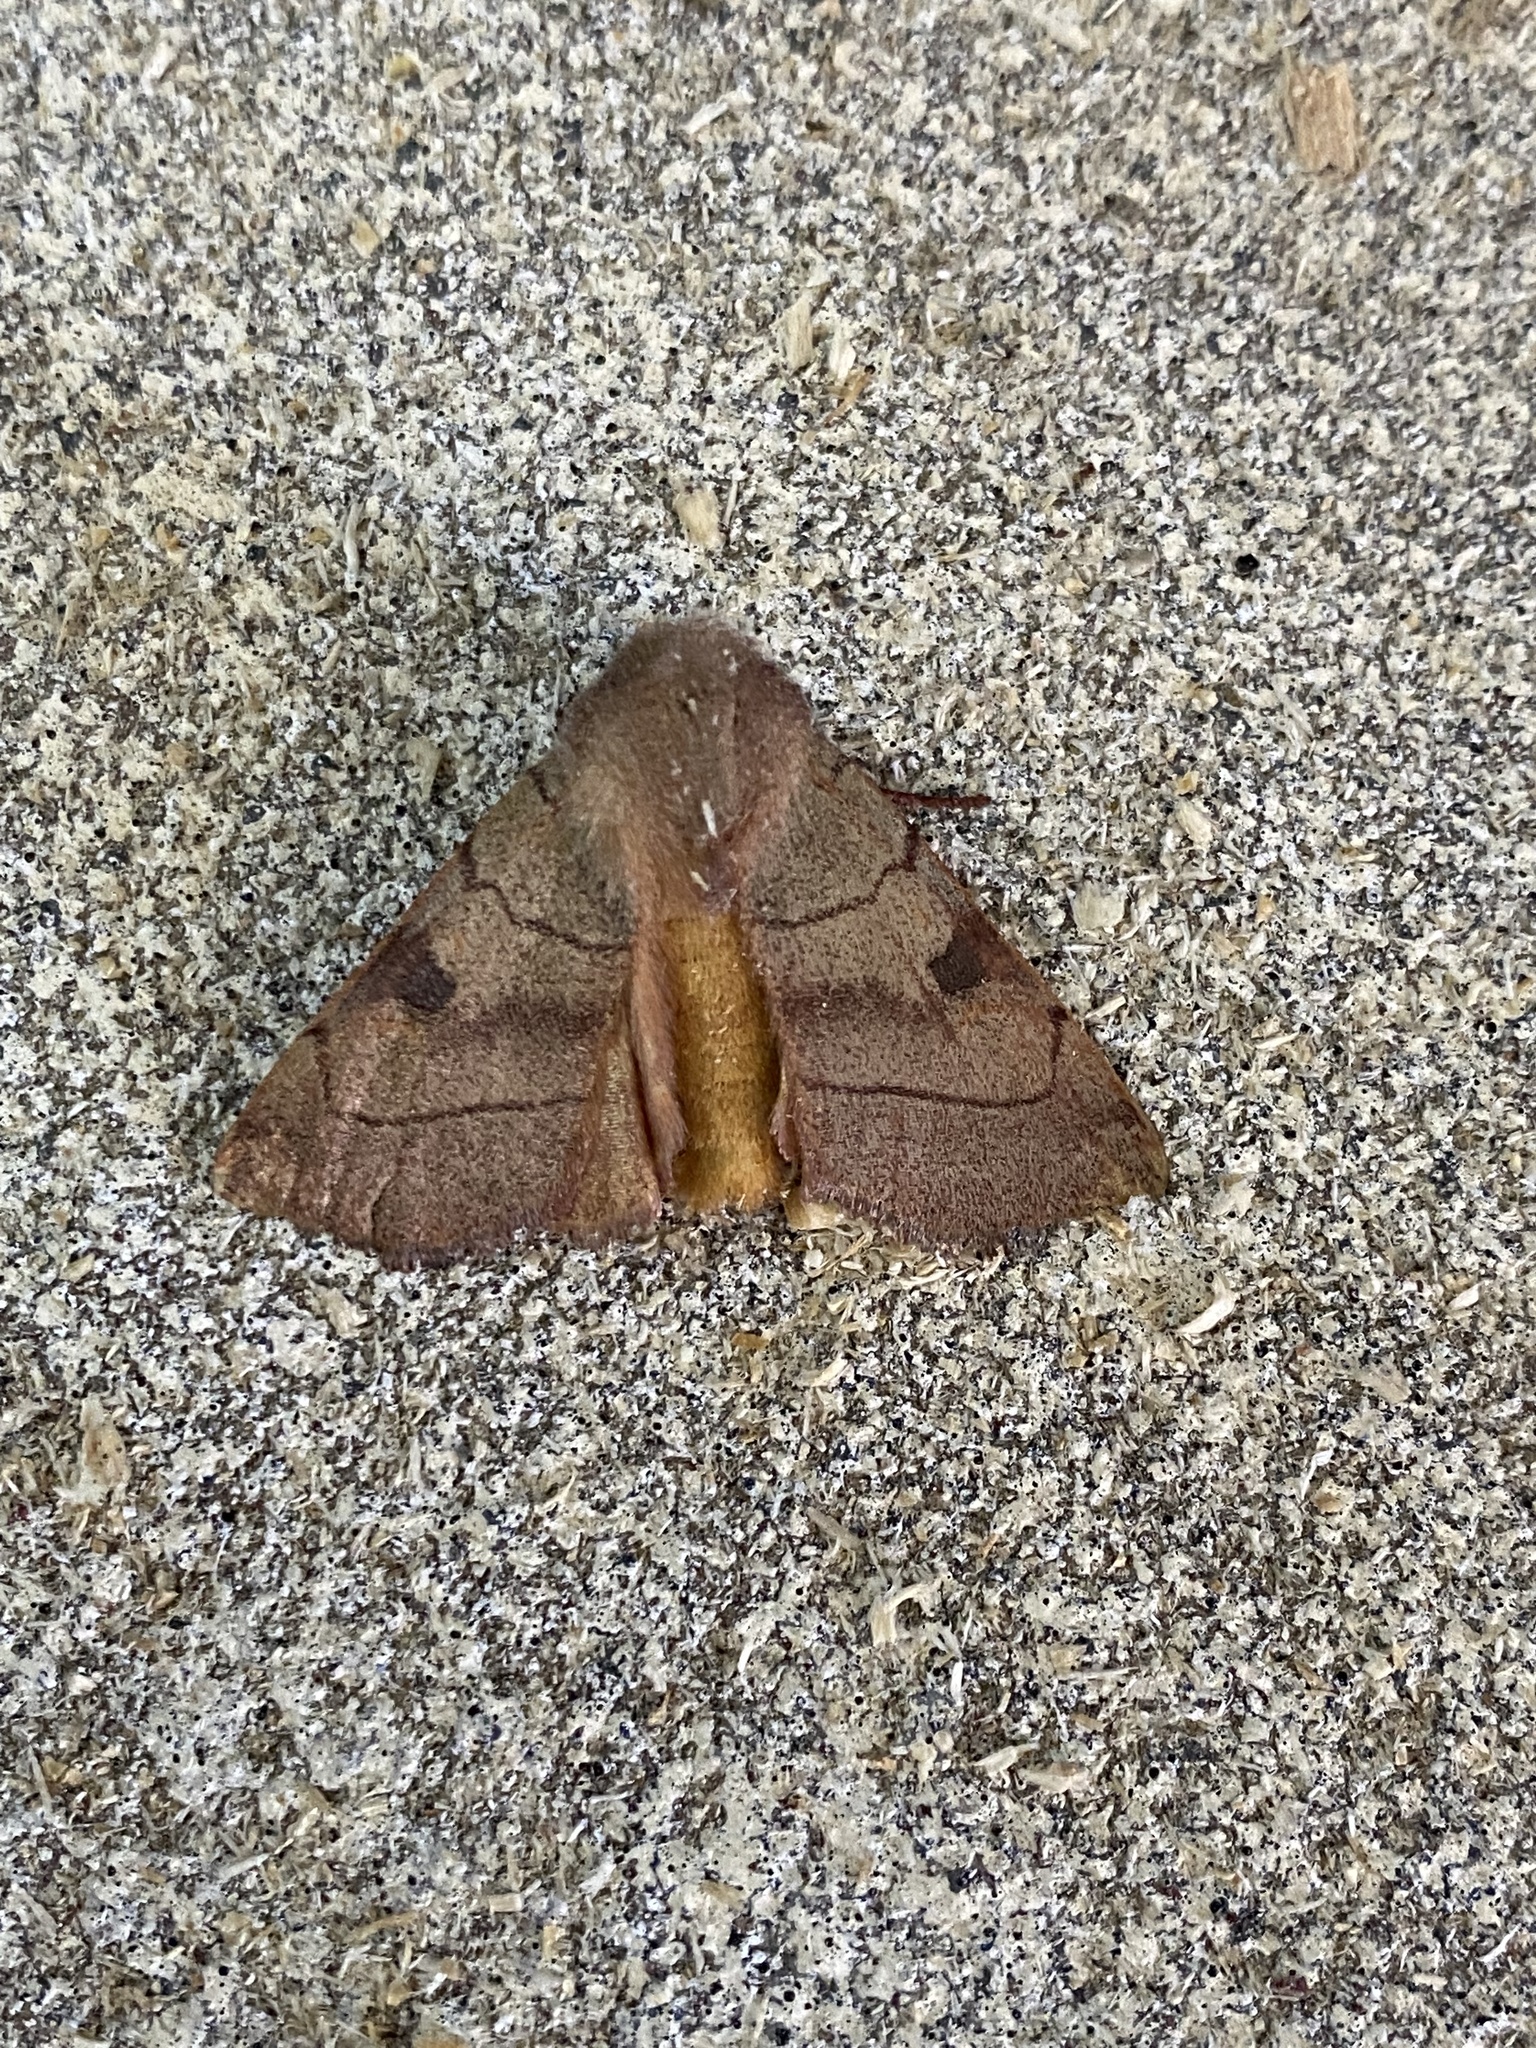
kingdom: Animalia
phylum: Arthropoda
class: Insecta
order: Lepidoptera
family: Noctuidae
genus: Choephora
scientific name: Choephora fungorum
